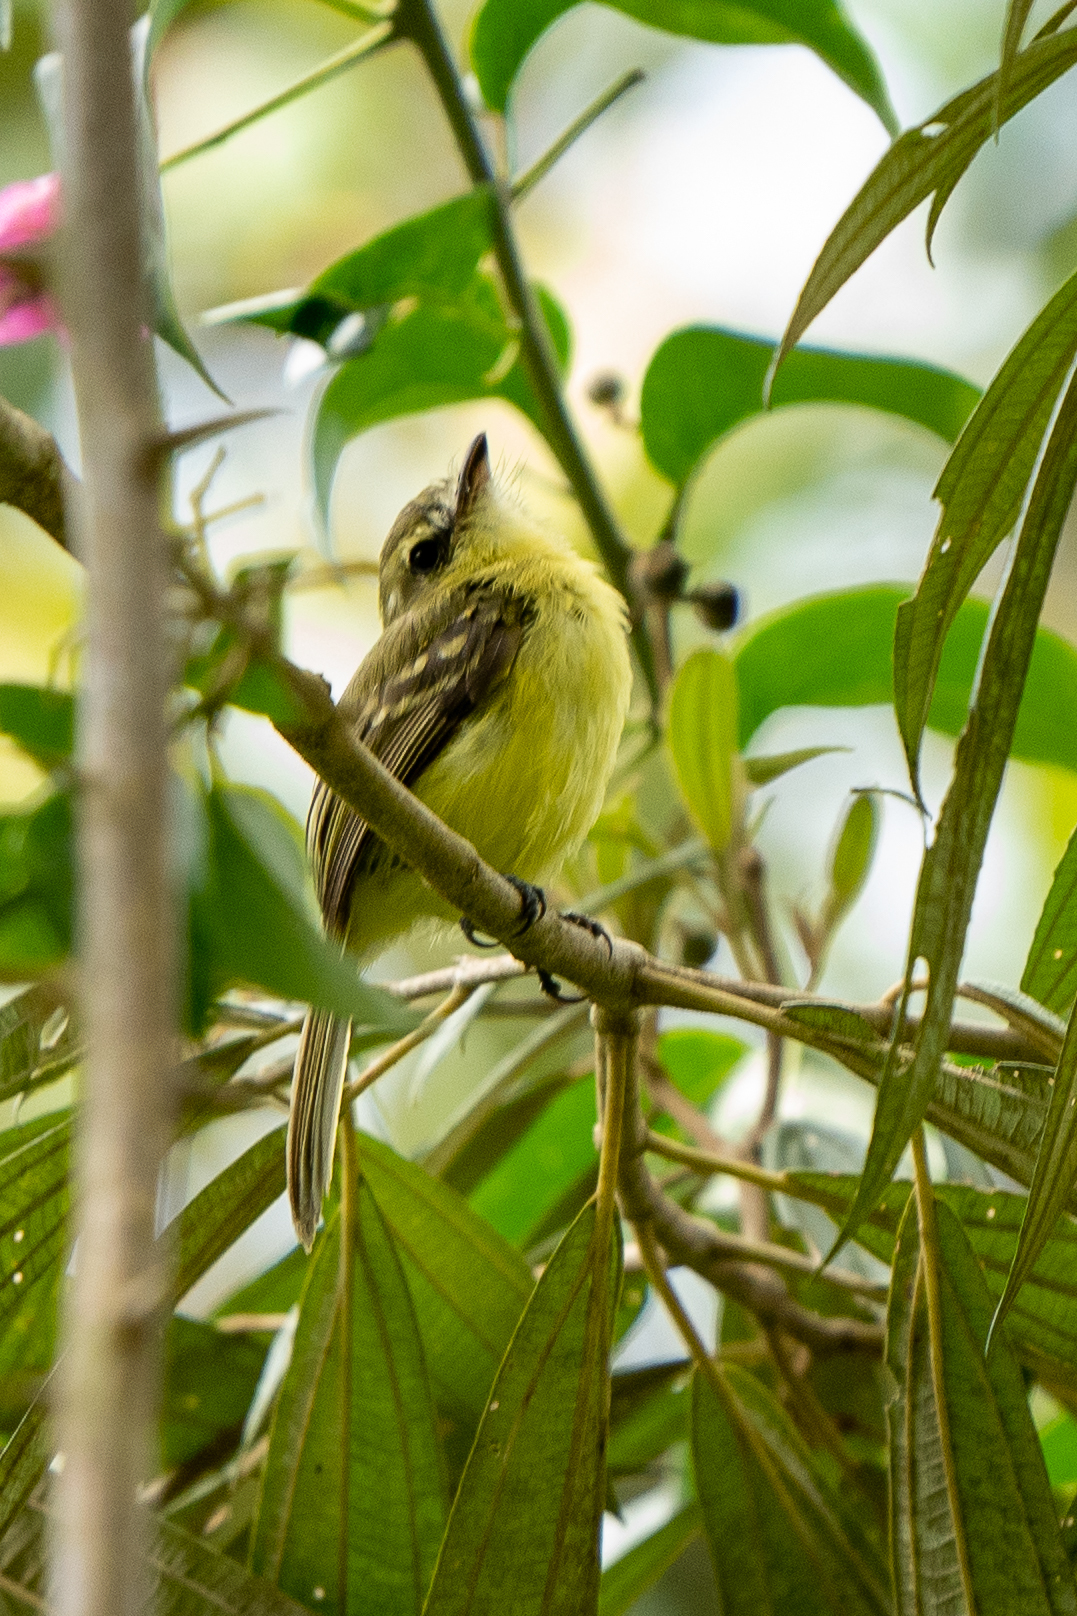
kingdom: Animalia
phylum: Chordata
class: Aves
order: Passeriformes
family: Tyrannidae
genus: Capsiempis
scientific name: Capsiempis flaveola
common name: Yellow tyrannulet
